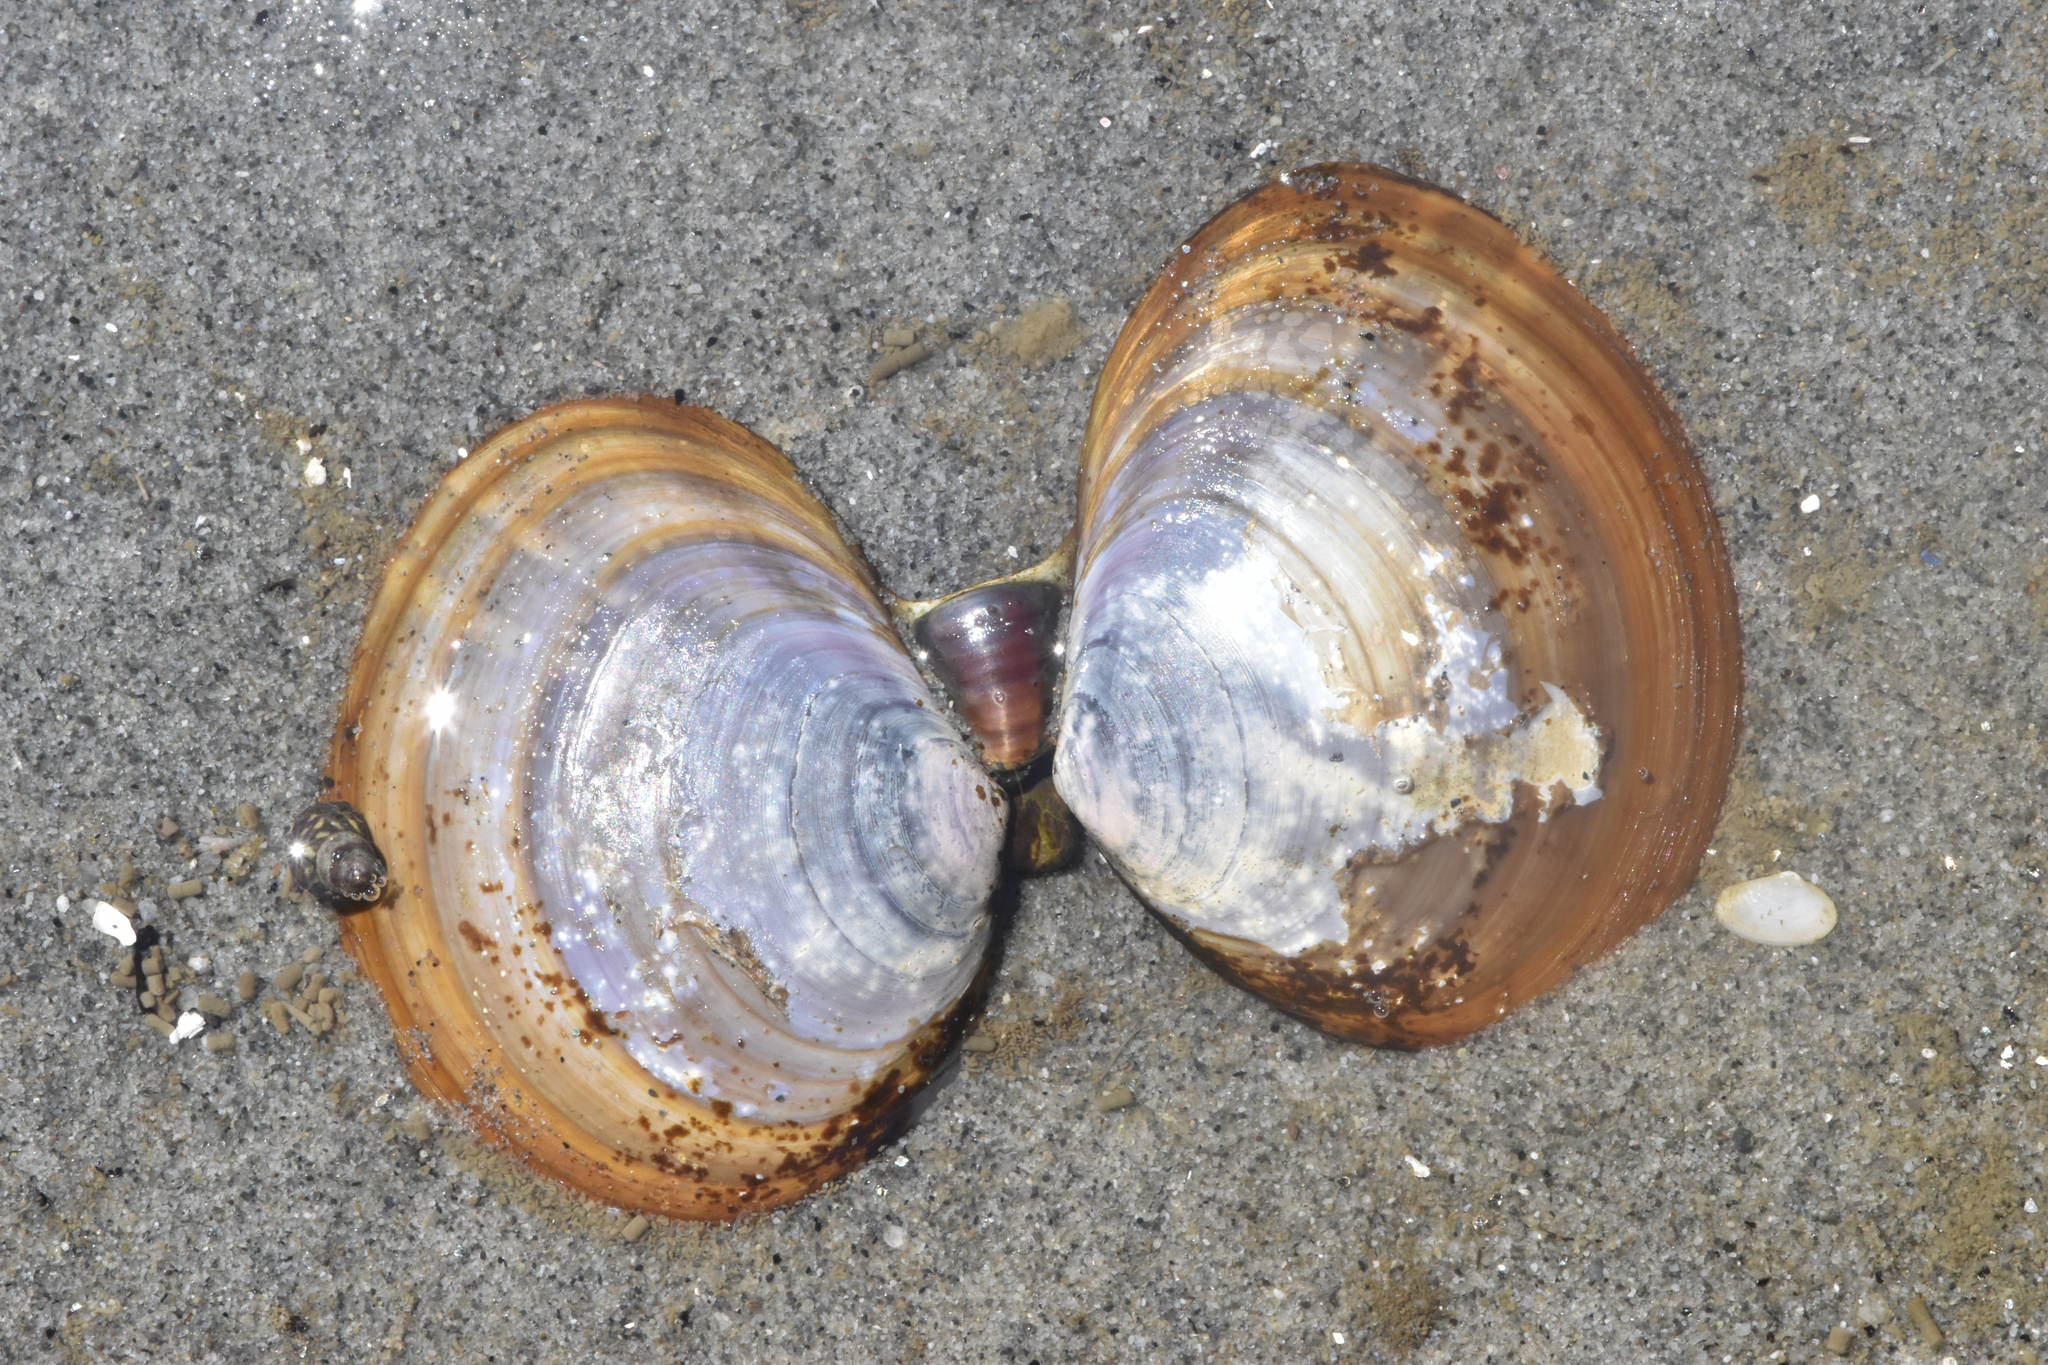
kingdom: Animalia
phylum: Mollusca
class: Bivalvia
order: Cardiida
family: Psammobiidae
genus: Nuttallia
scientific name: Nuttallia obscurata
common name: Purple mahogany-clam
